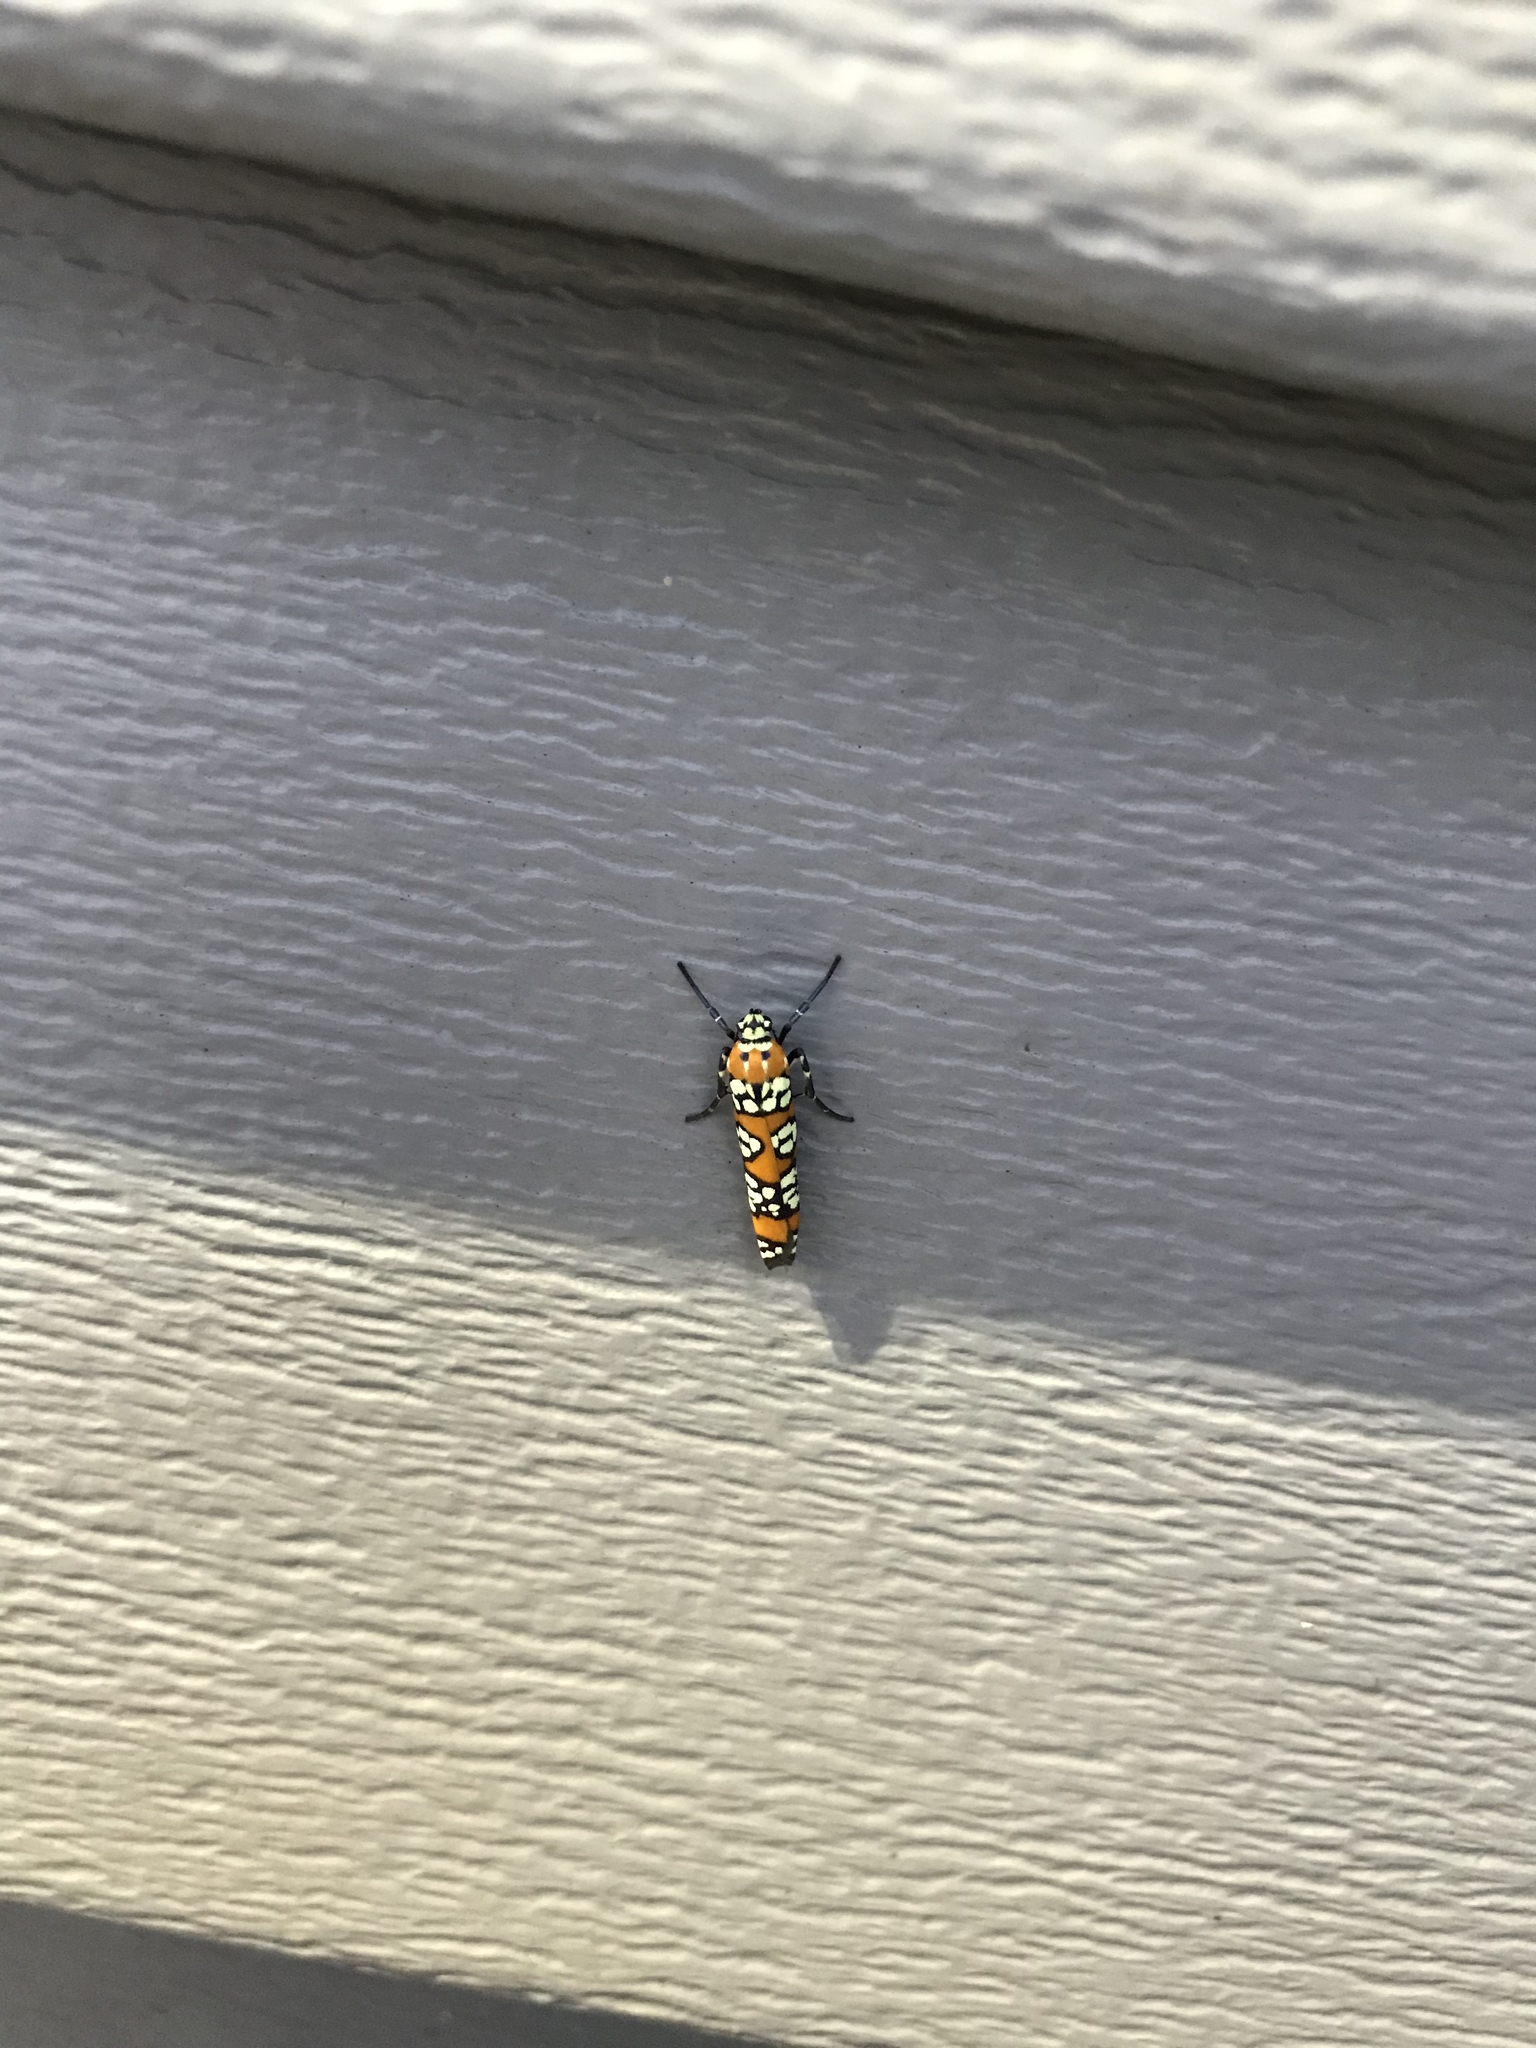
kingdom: Animalia
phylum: Arthropoda
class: Insecta
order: Lepidoptera
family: Attevidae
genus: Atteva
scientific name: Atteva punctella
